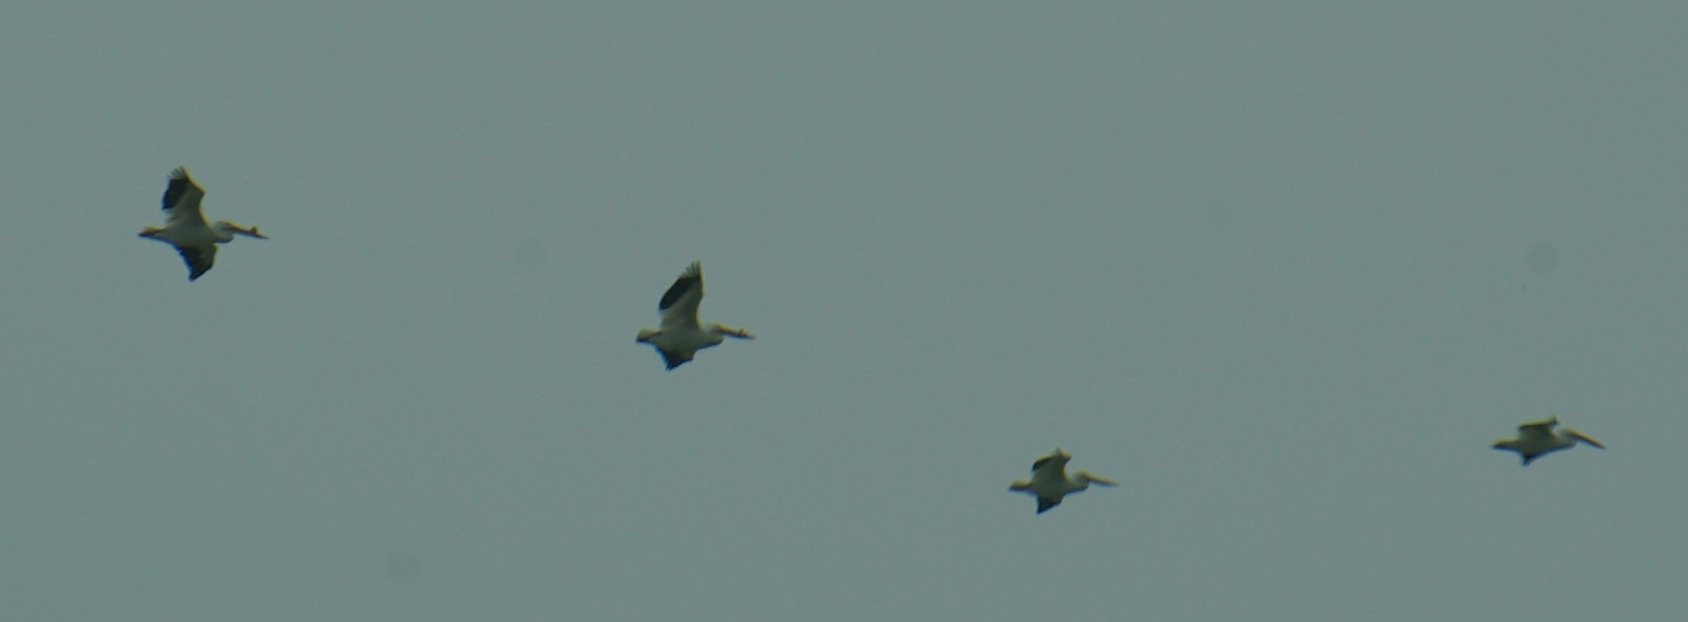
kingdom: Animalia
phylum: Chordata
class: Aves
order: Pelecaniformes
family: Pelecanidae
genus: Pelecanus
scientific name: Pelecanus erythrorhynchos
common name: American white pelican
